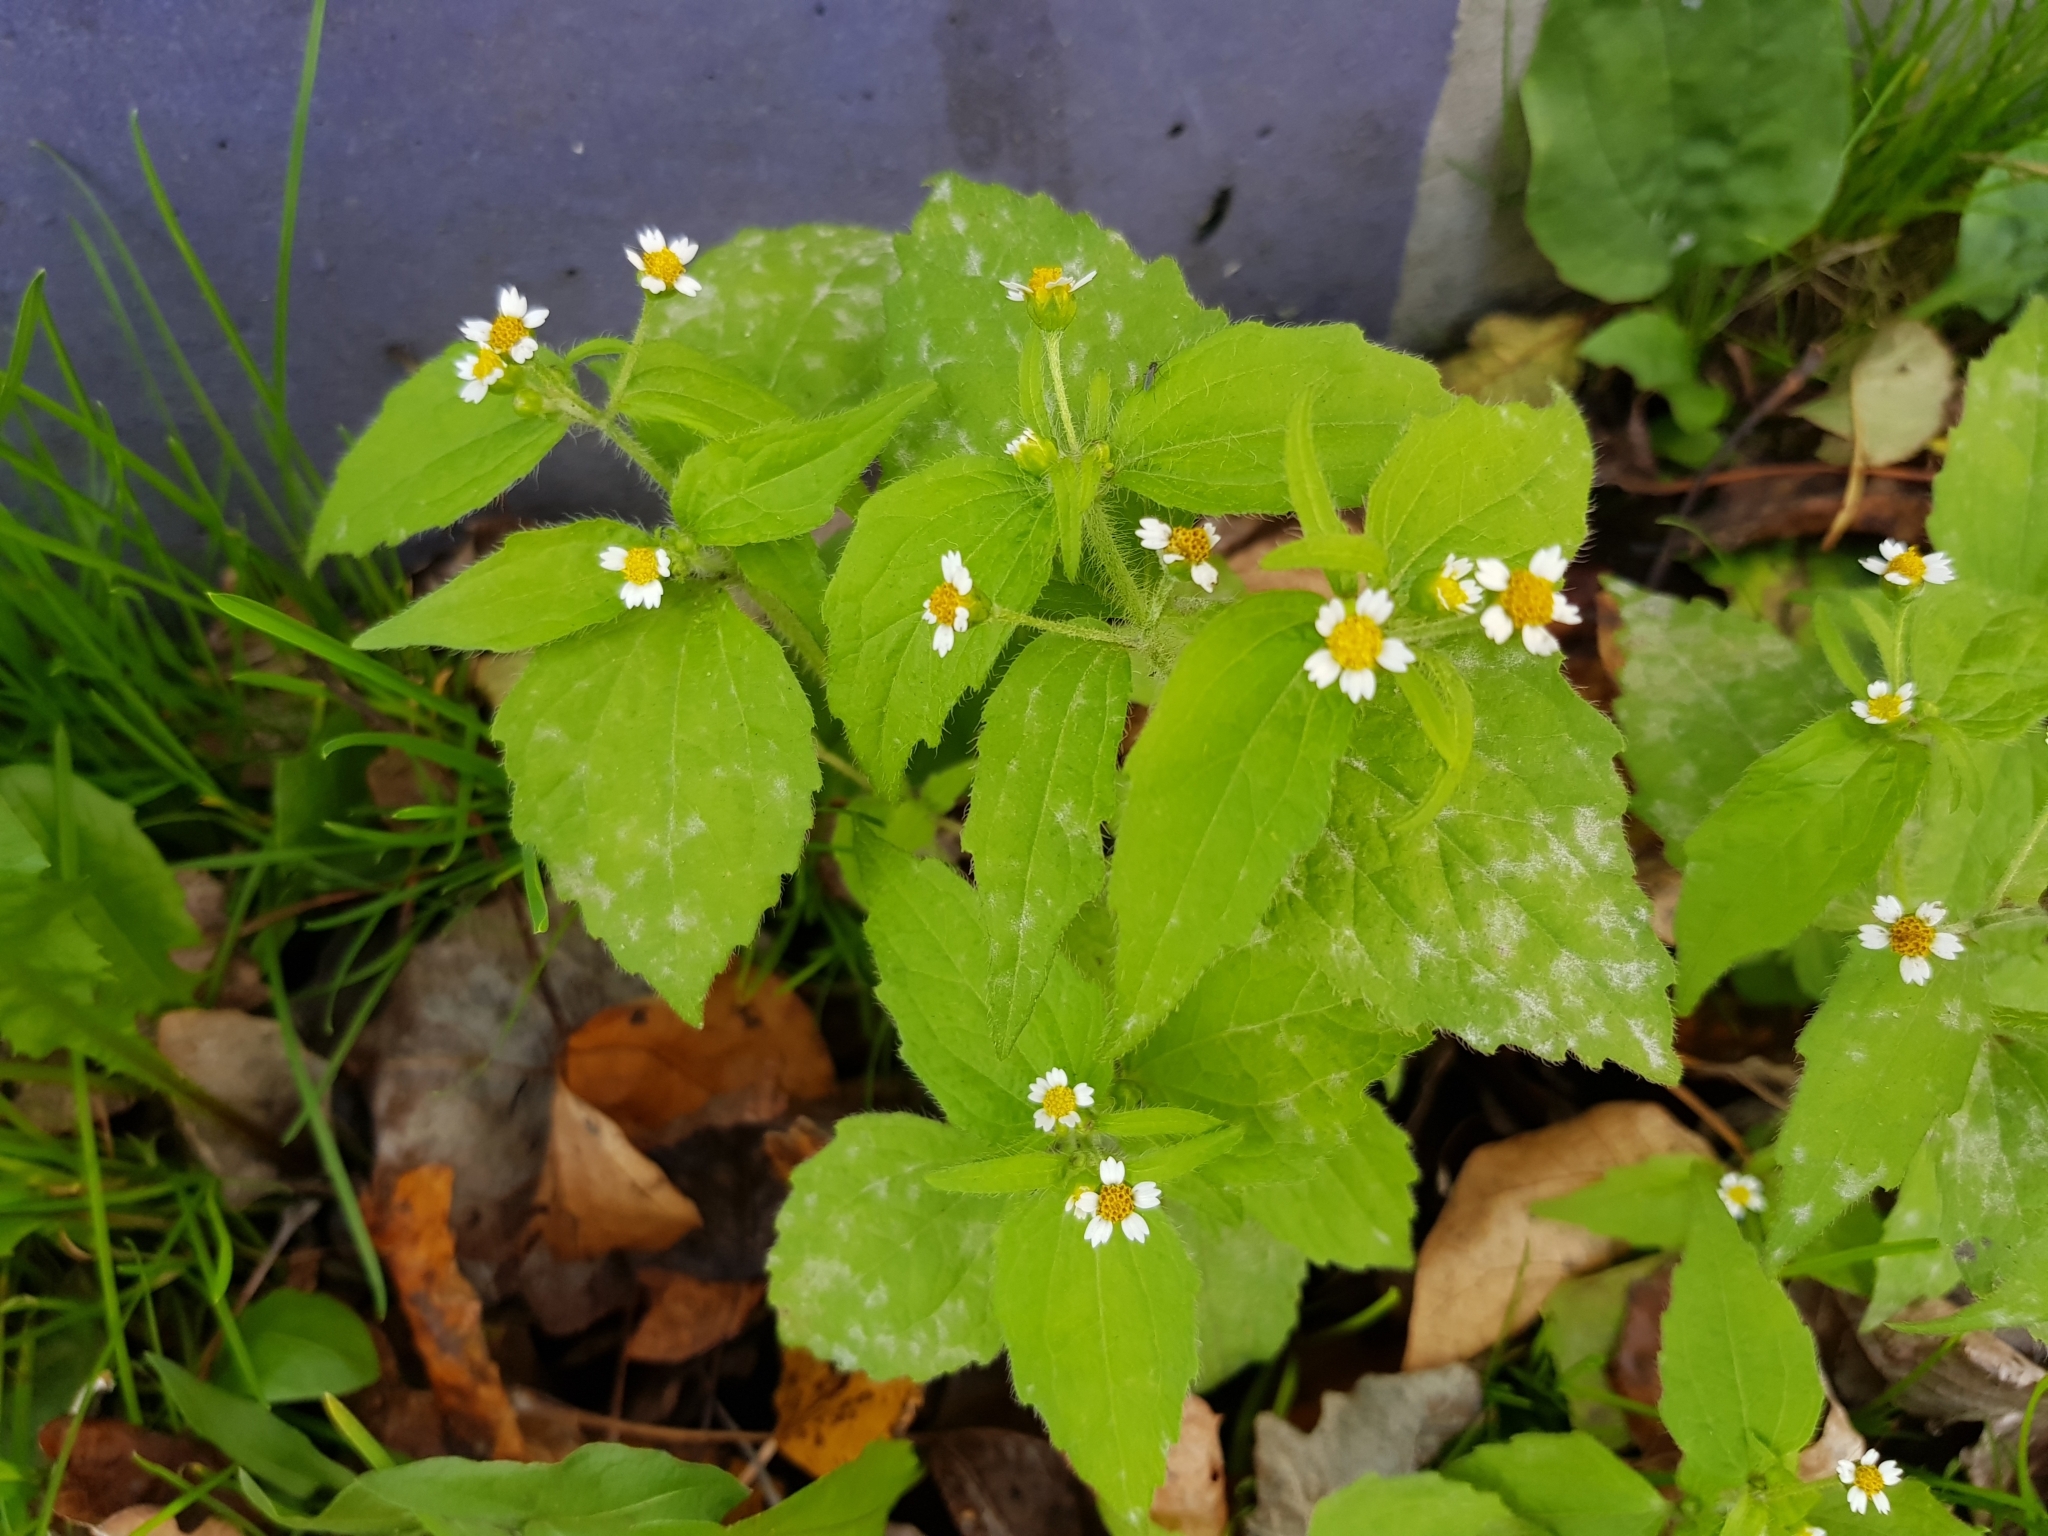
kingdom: Plantae
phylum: Tracheophyta
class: Magnoliopsida
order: Asterales
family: Asteraceae
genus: Galinsoga
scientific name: Galinsoga quadriradiata
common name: Shaggy soldier
